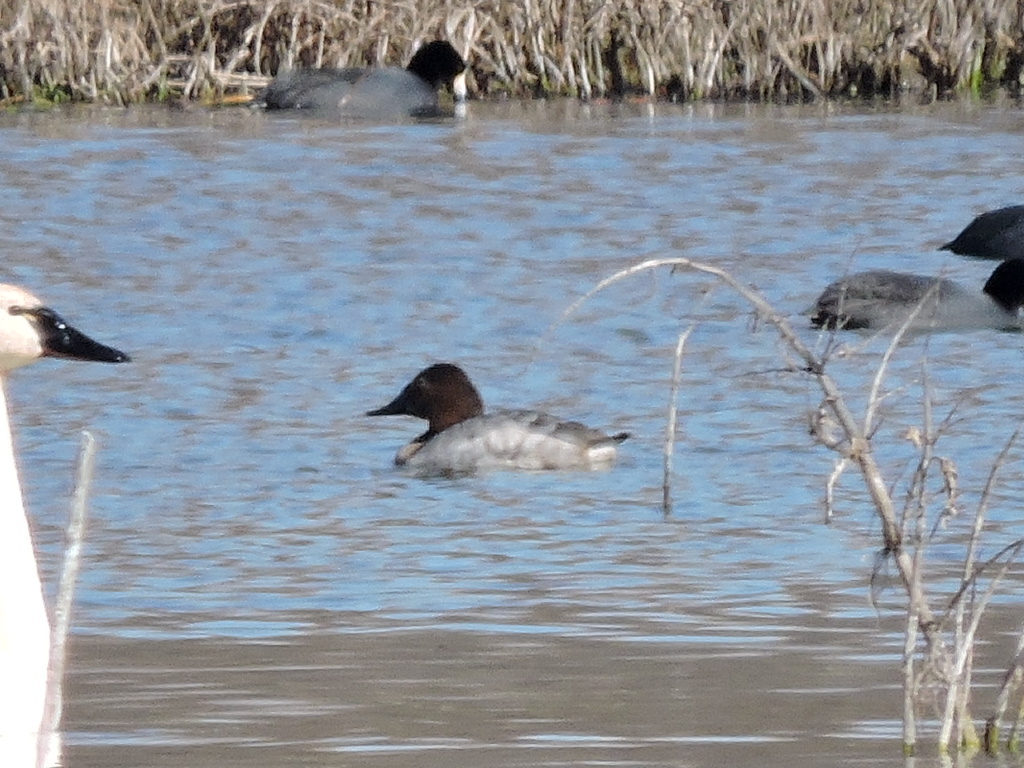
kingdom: Animalia
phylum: Chordata
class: Aves
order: Anseriformes
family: Anatidae
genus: Aythya
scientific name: Aythya valisineria
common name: Canvasback
